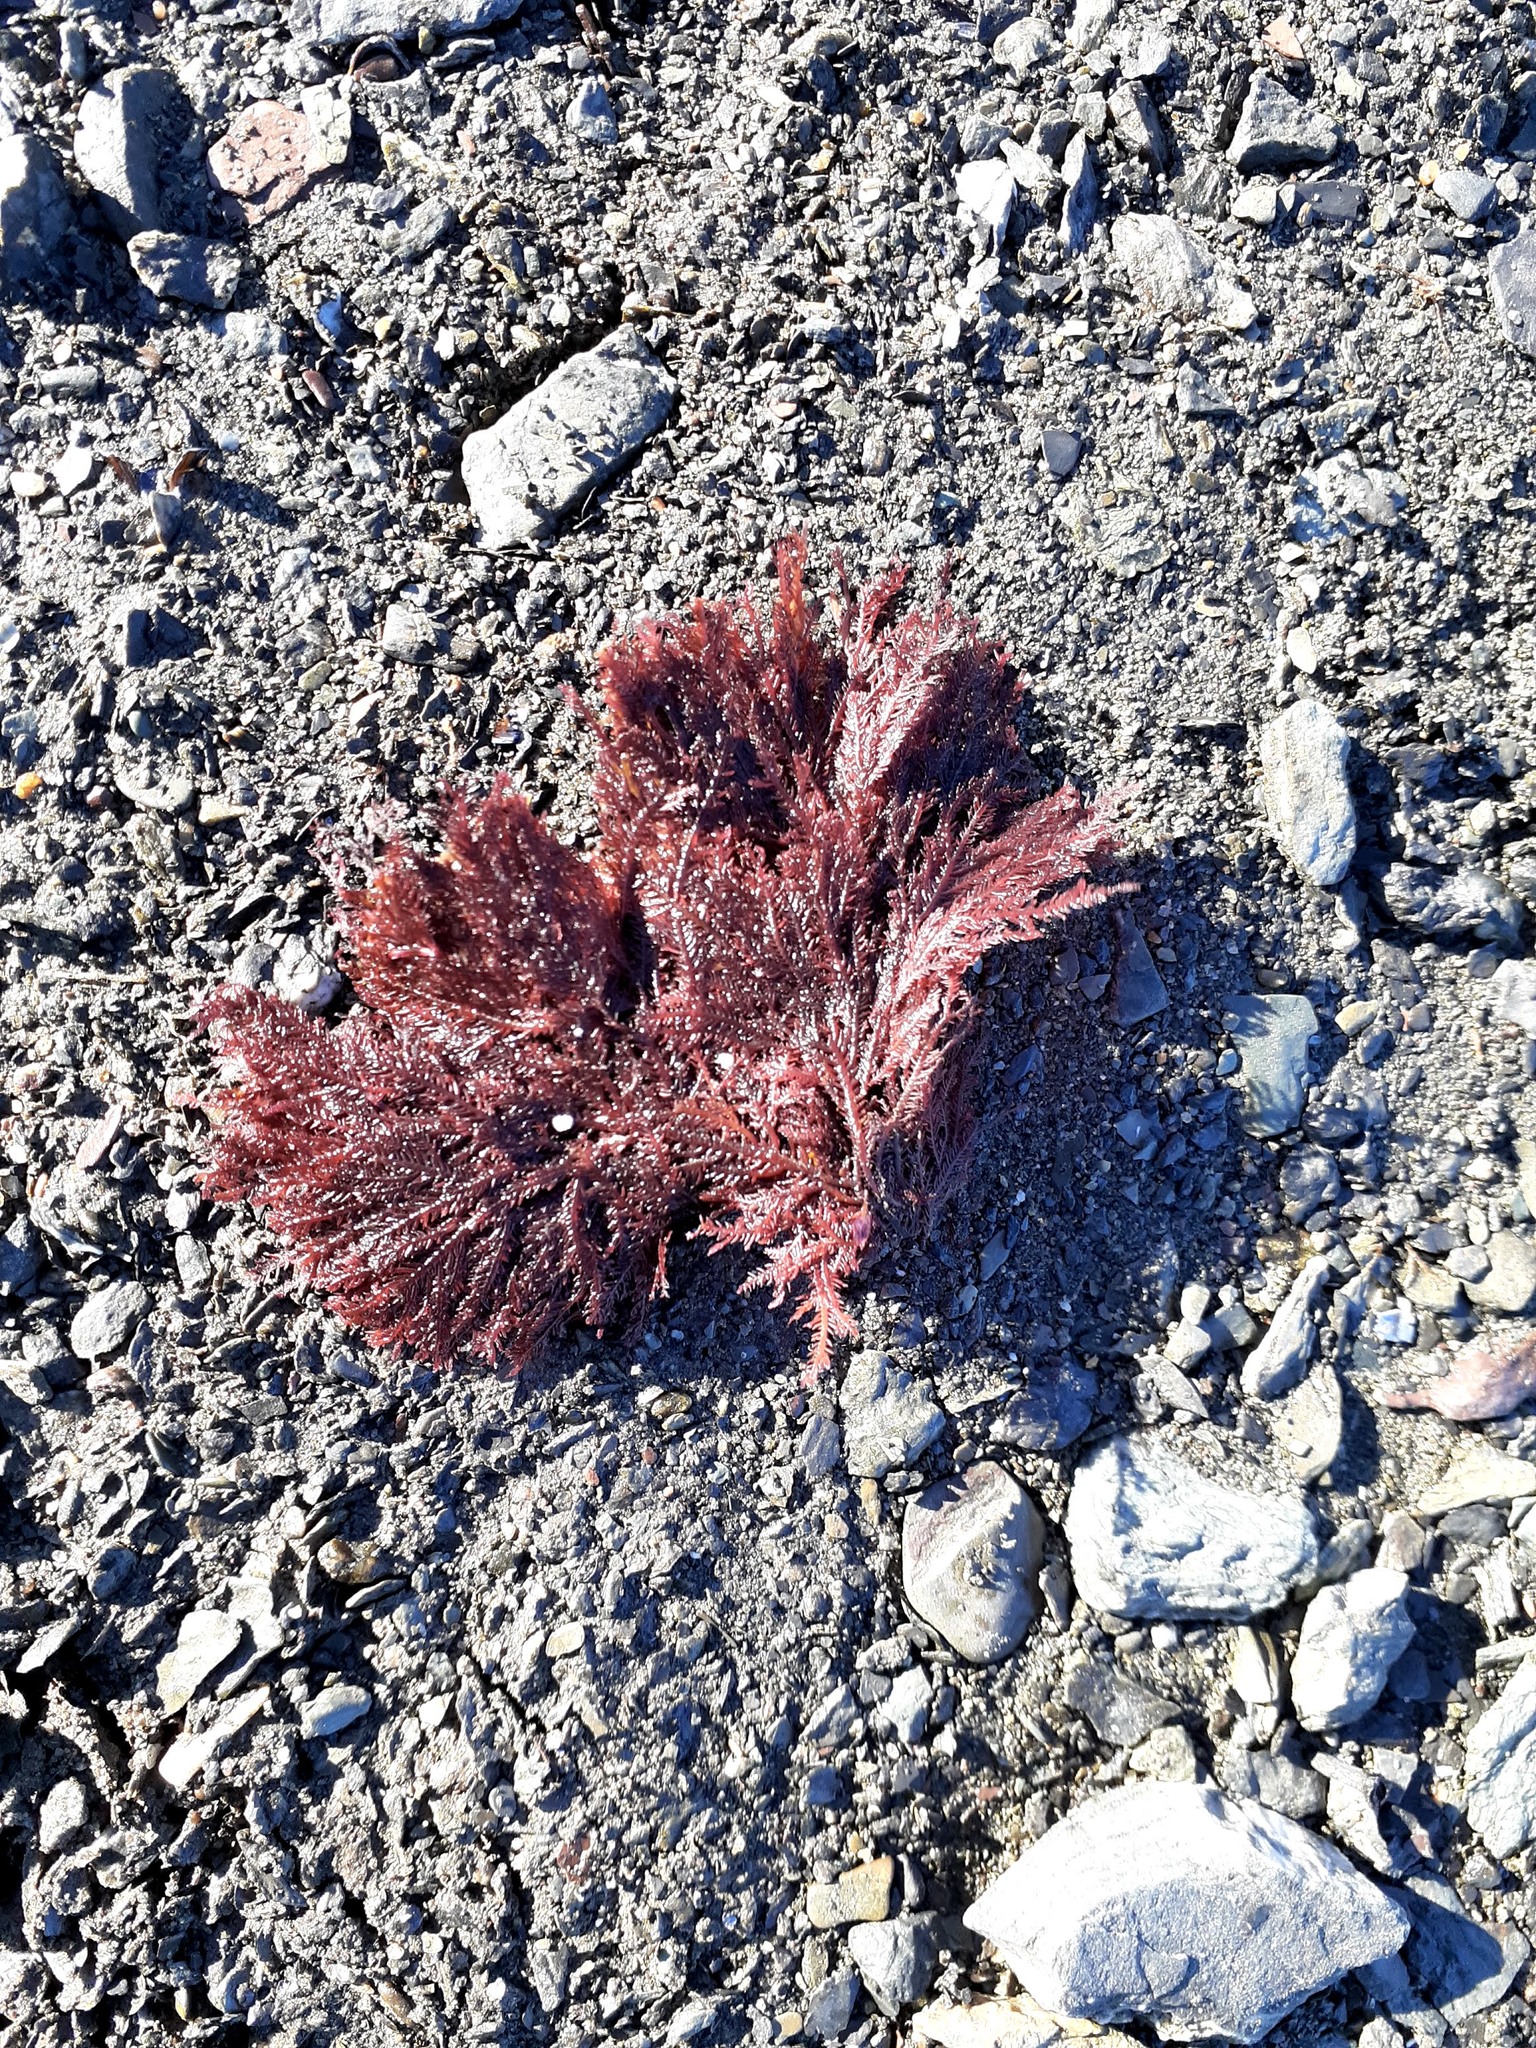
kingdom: Plantae
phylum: Rhodophyta
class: Florideophyceae
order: Ceramiales
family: Wrangeliaceae
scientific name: Wrangeliaceae
